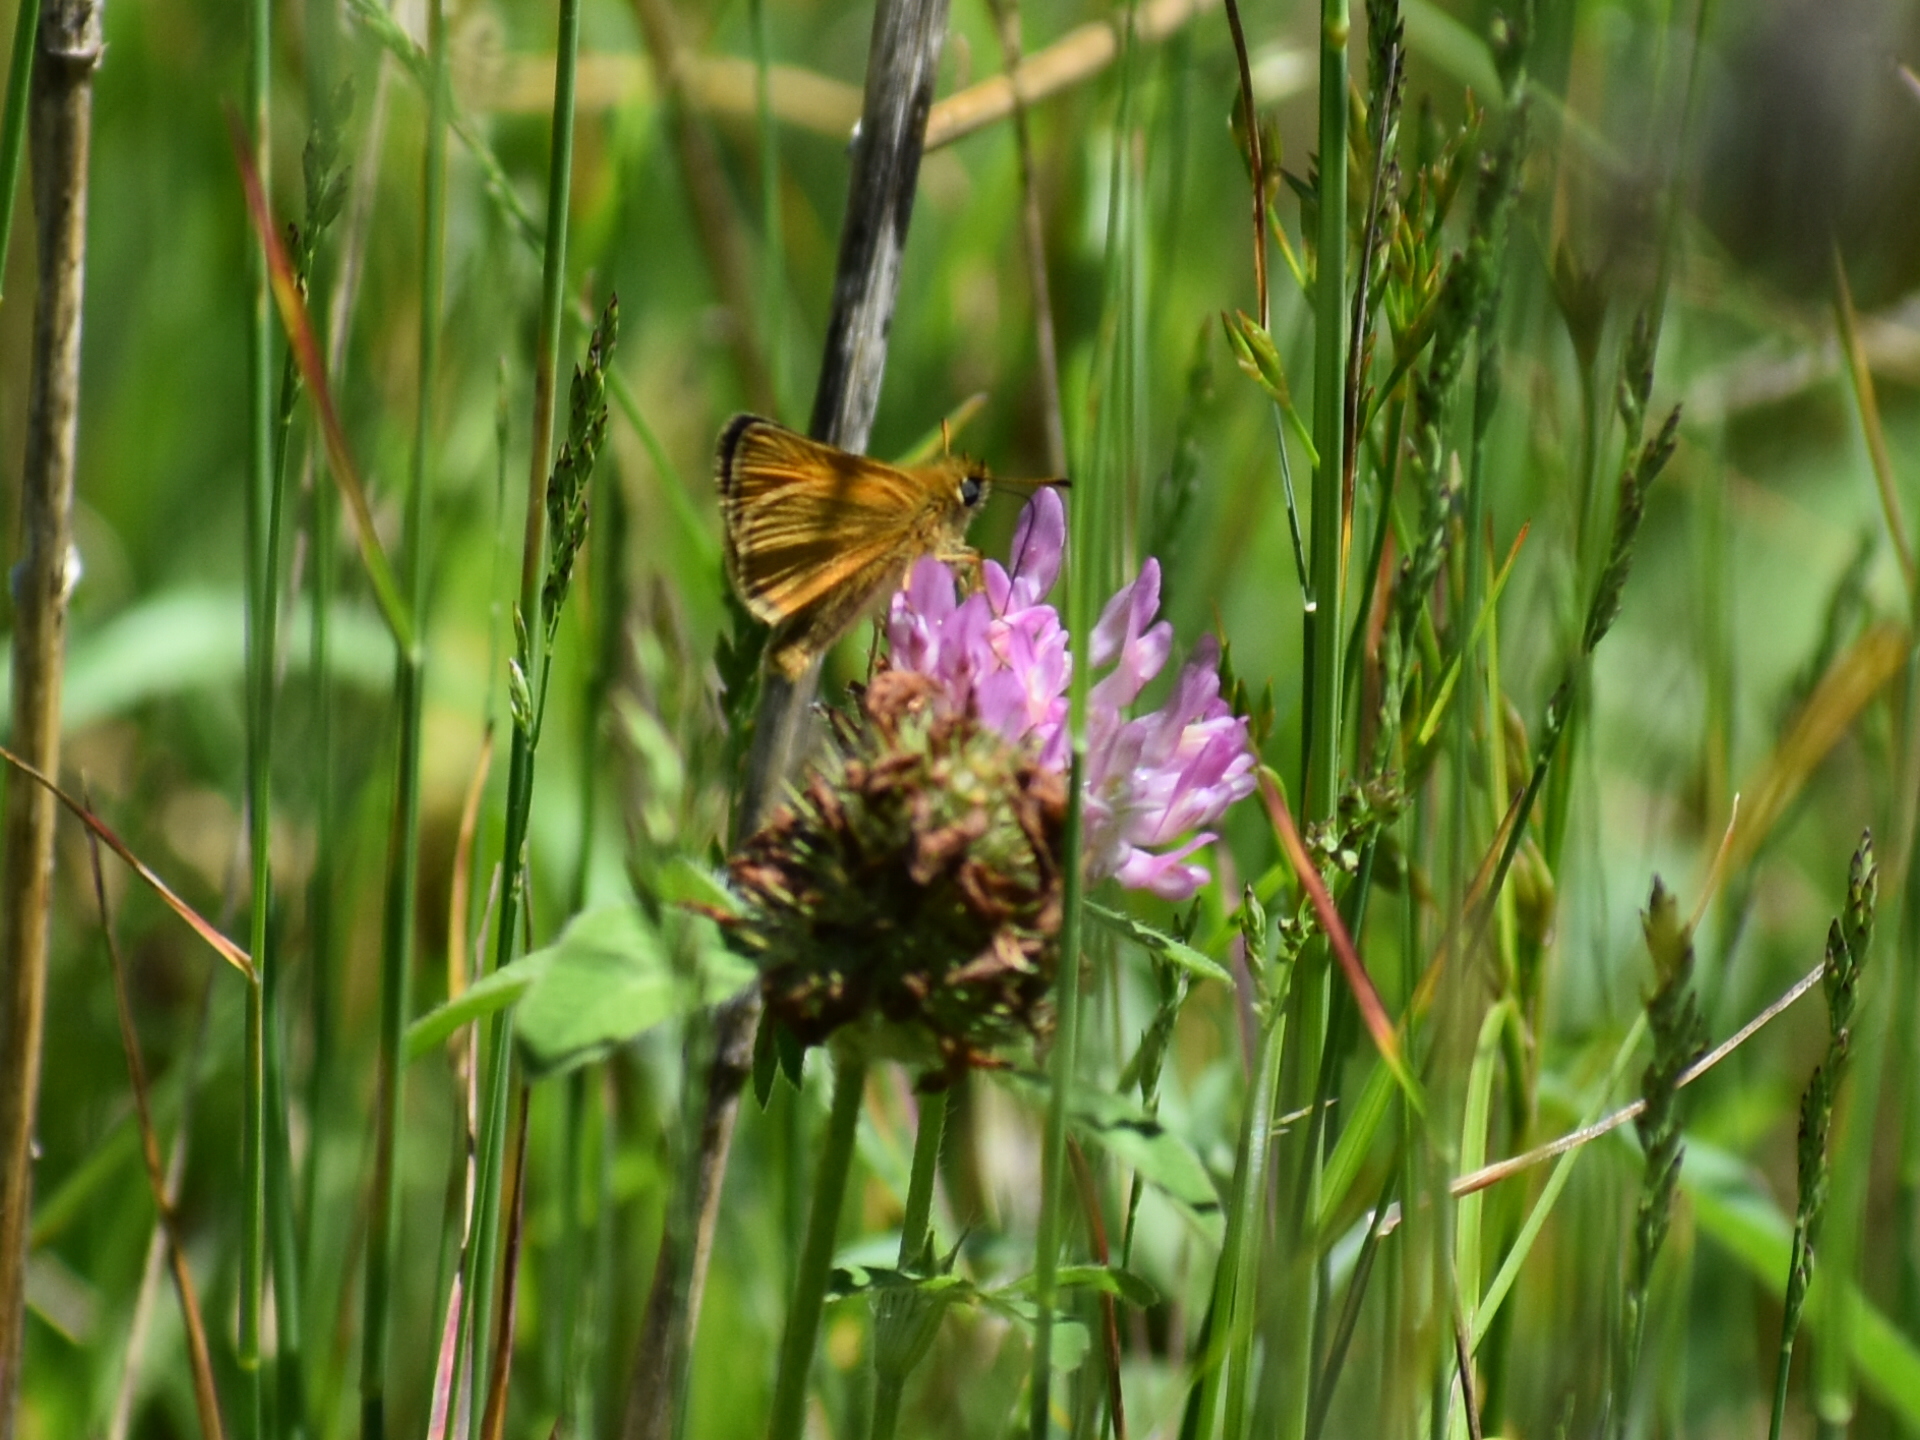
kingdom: Animalia
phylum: Arthropoda
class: Insecta
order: Lepidoptera
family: Hesperiidae
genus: Thymelicus
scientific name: Thymelicus lineola
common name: Essex skipper
